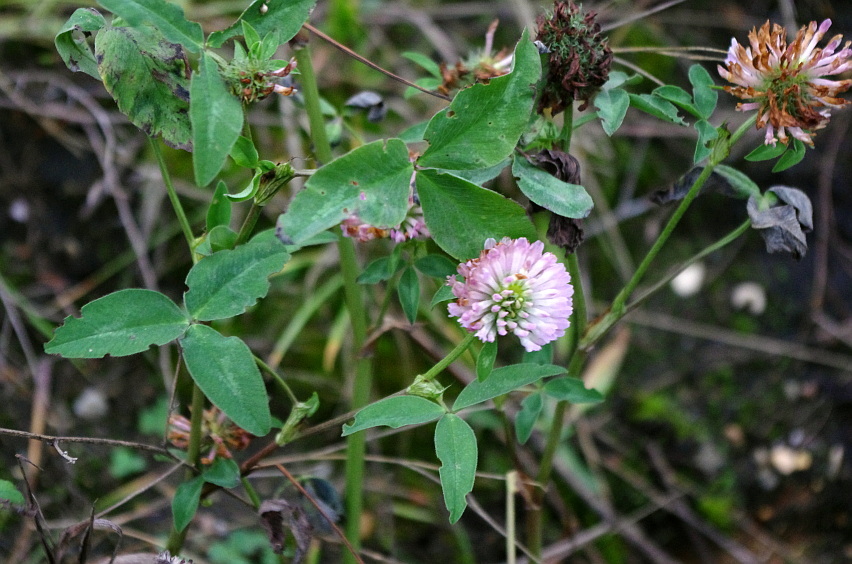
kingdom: Plantae
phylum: Tracheophyta
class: Magnoliopsida
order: Fabales
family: Fabaceae
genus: Trifolium
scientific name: Trifolium pratense
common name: Red clover
